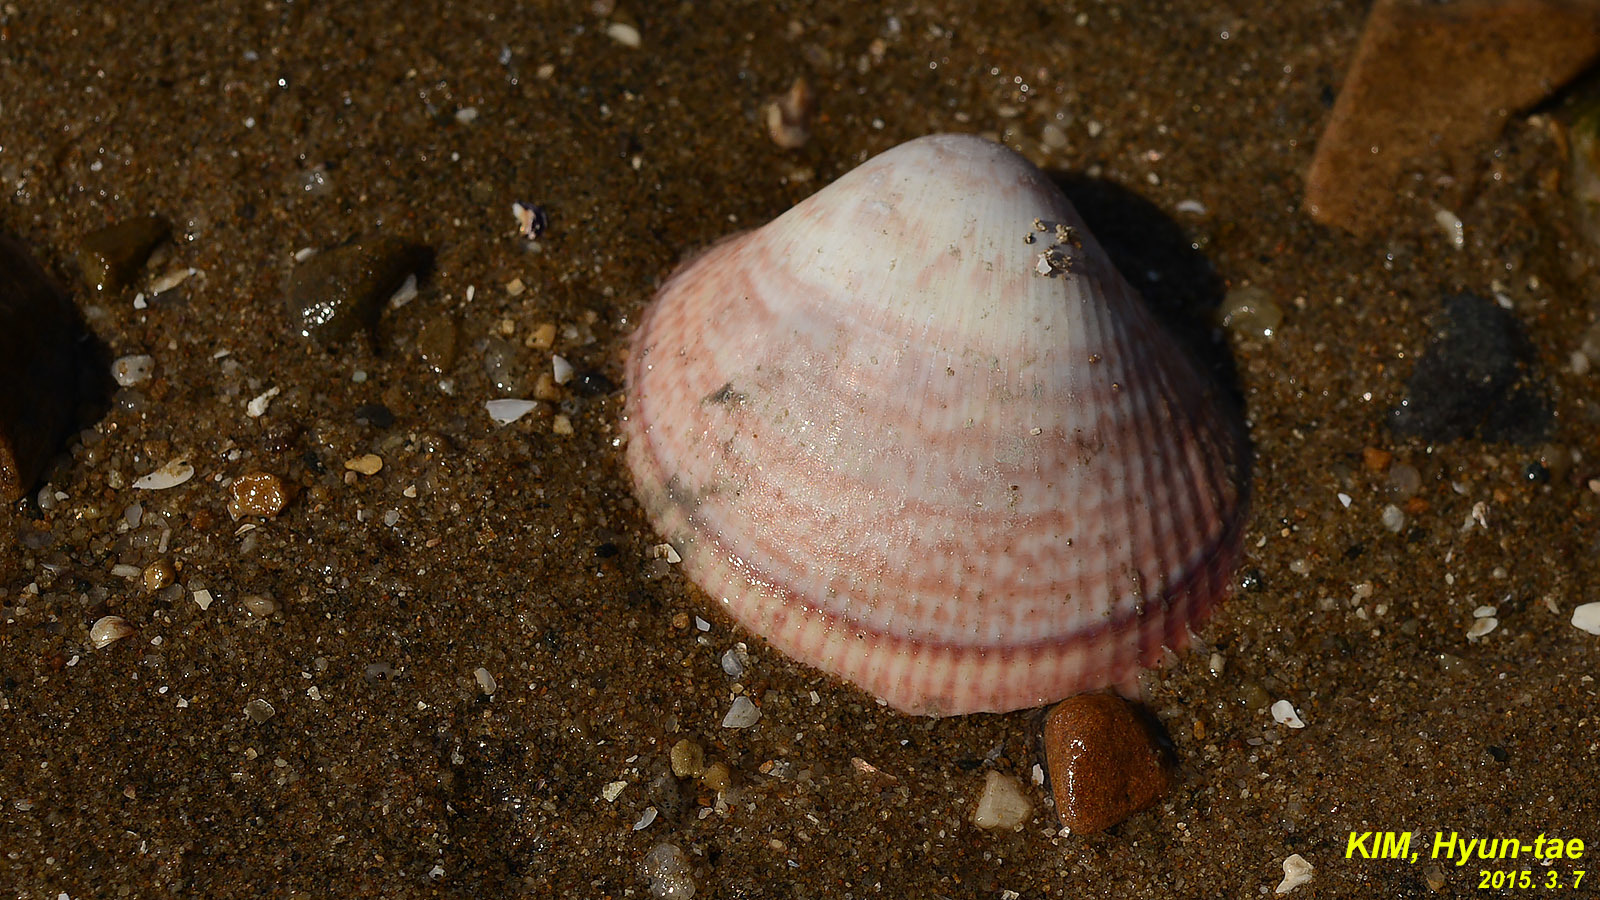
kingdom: Animalia
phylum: Mollusca
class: Bivalvia
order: Cardiida
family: Cardiidae
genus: Fulvia
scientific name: Fulvia mutica
